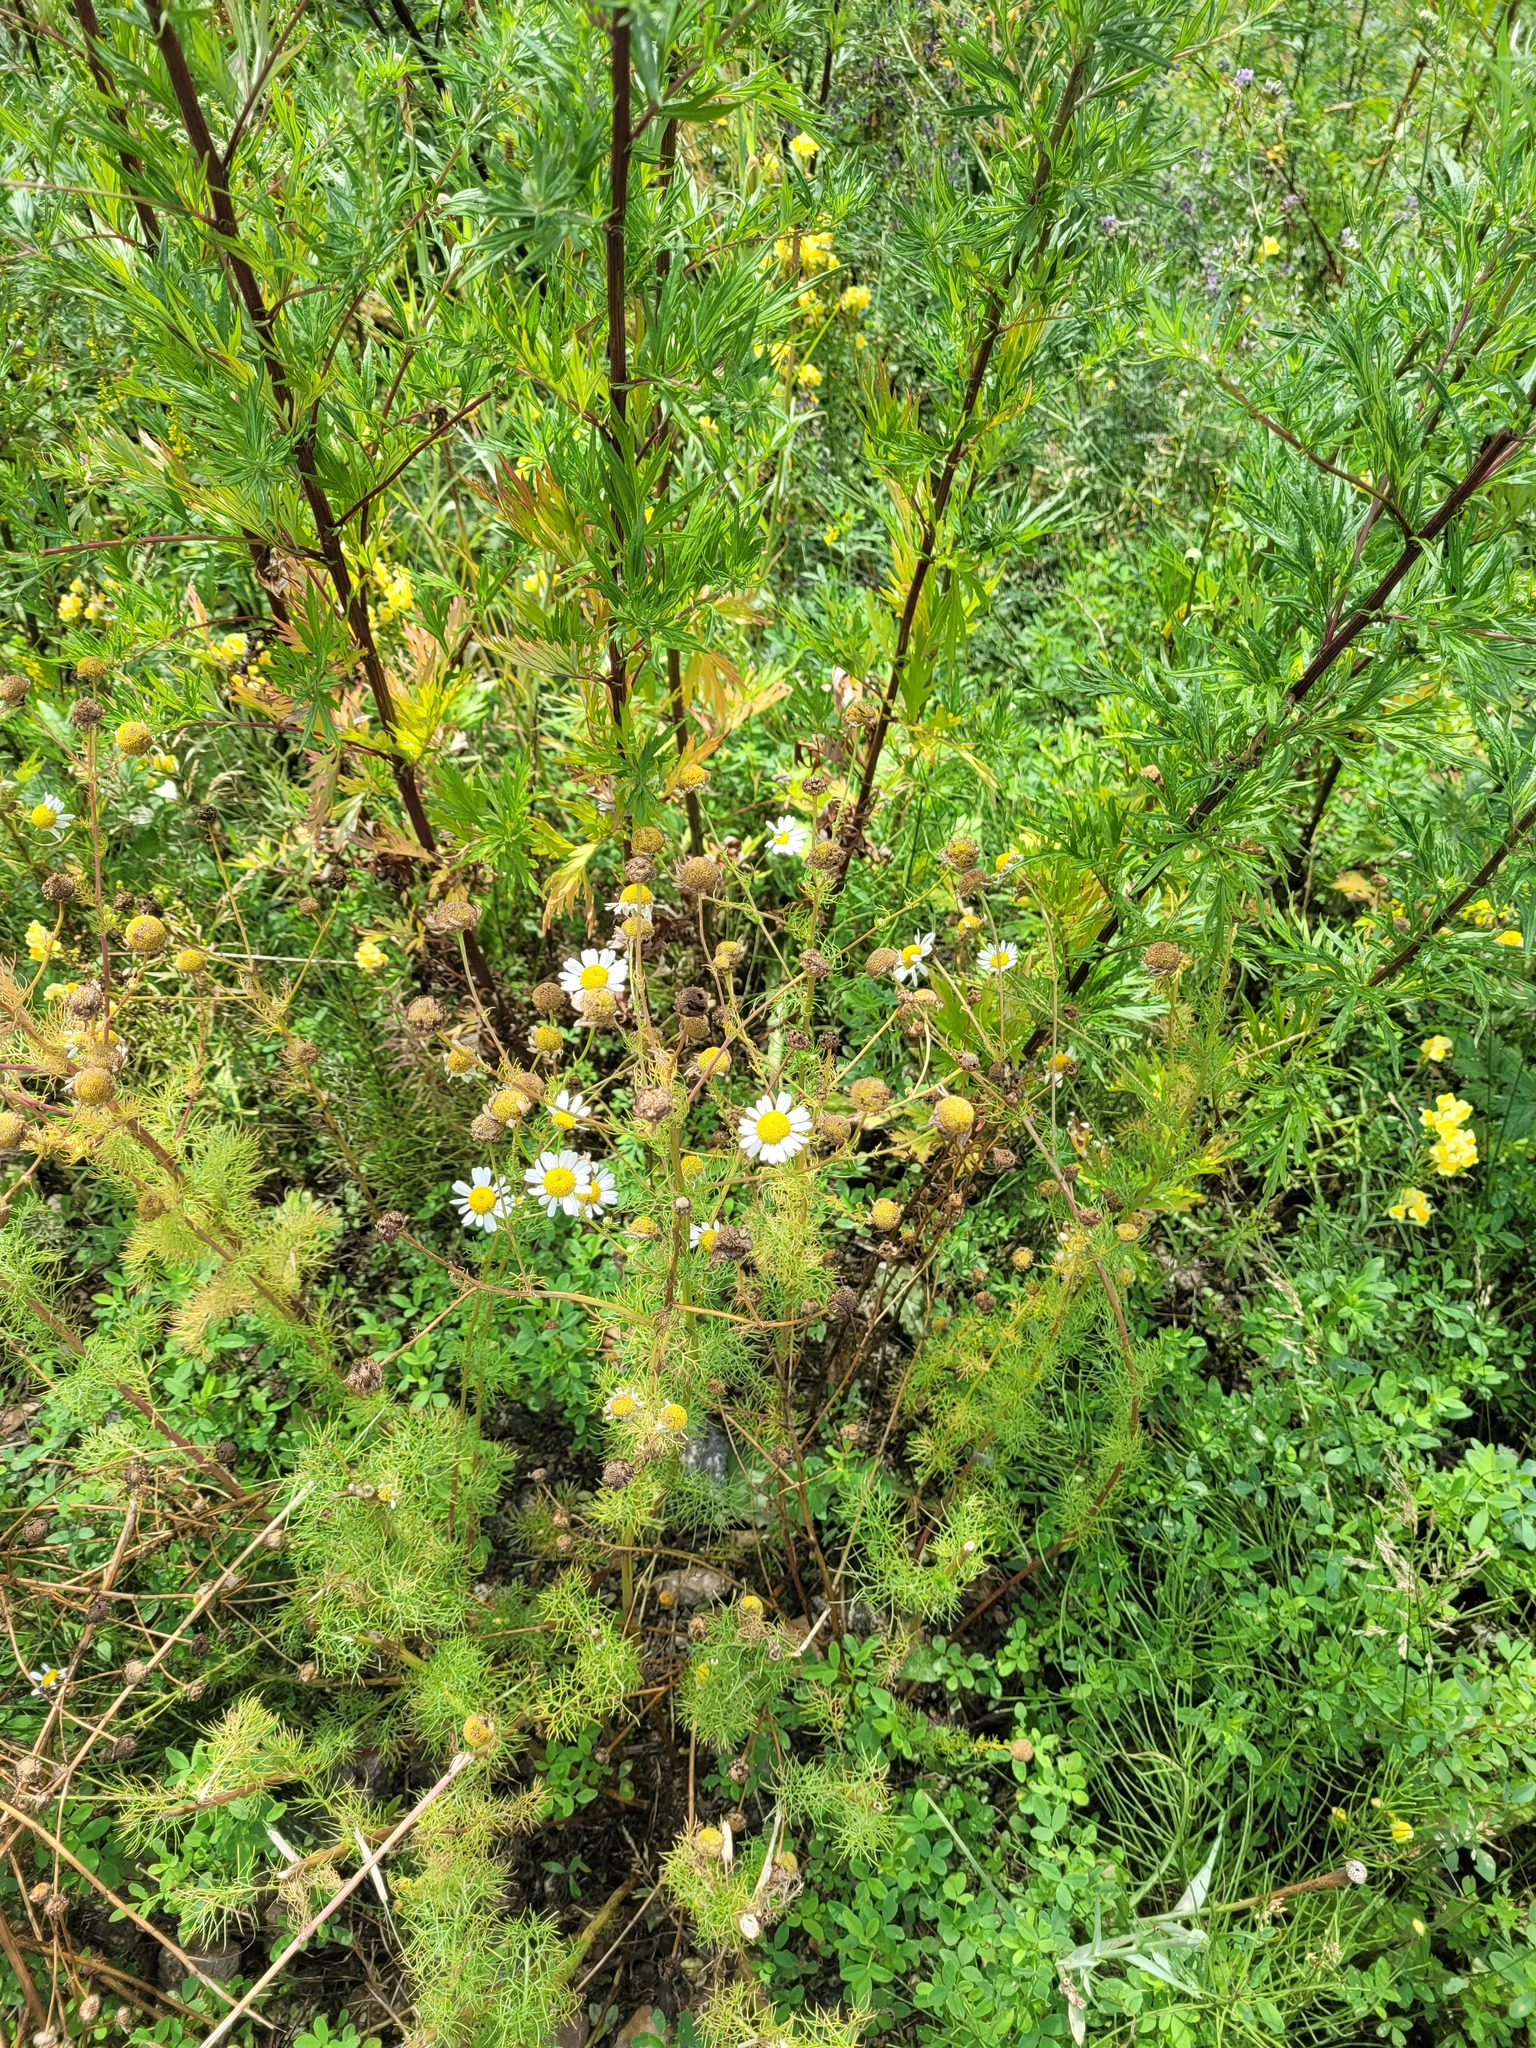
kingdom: Plantae
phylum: Tracheophyta
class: Magnoliopsida
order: Asterales
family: Asteraceae
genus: Tripleurospermum
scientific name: Tripleurospermum inodorum
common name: Scentless mayweed
